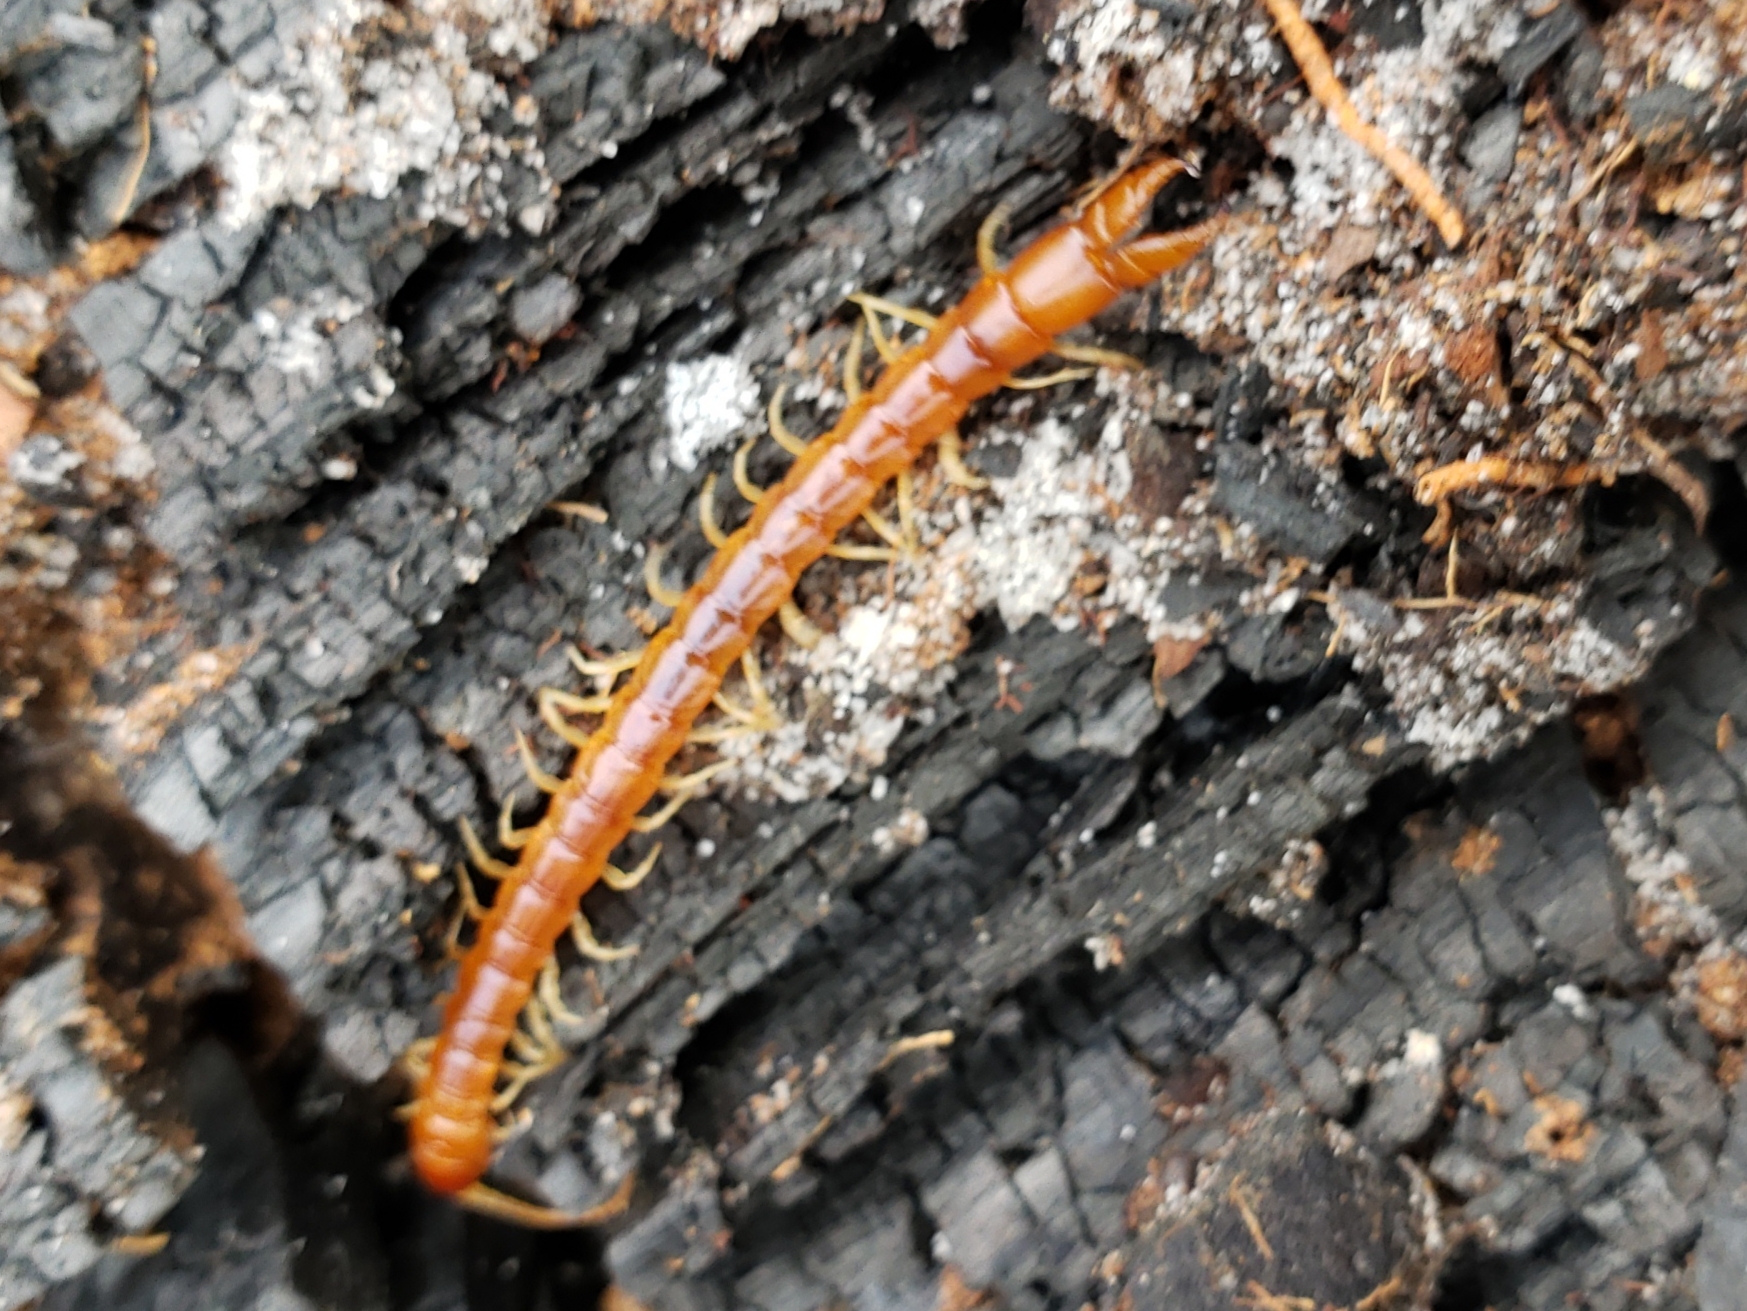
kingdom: Animalia
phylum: Arthropoda
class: Chilopoda
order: Scolopendromorpha
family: Cryptopidae
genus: Theatops
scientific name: Theatops posticus
